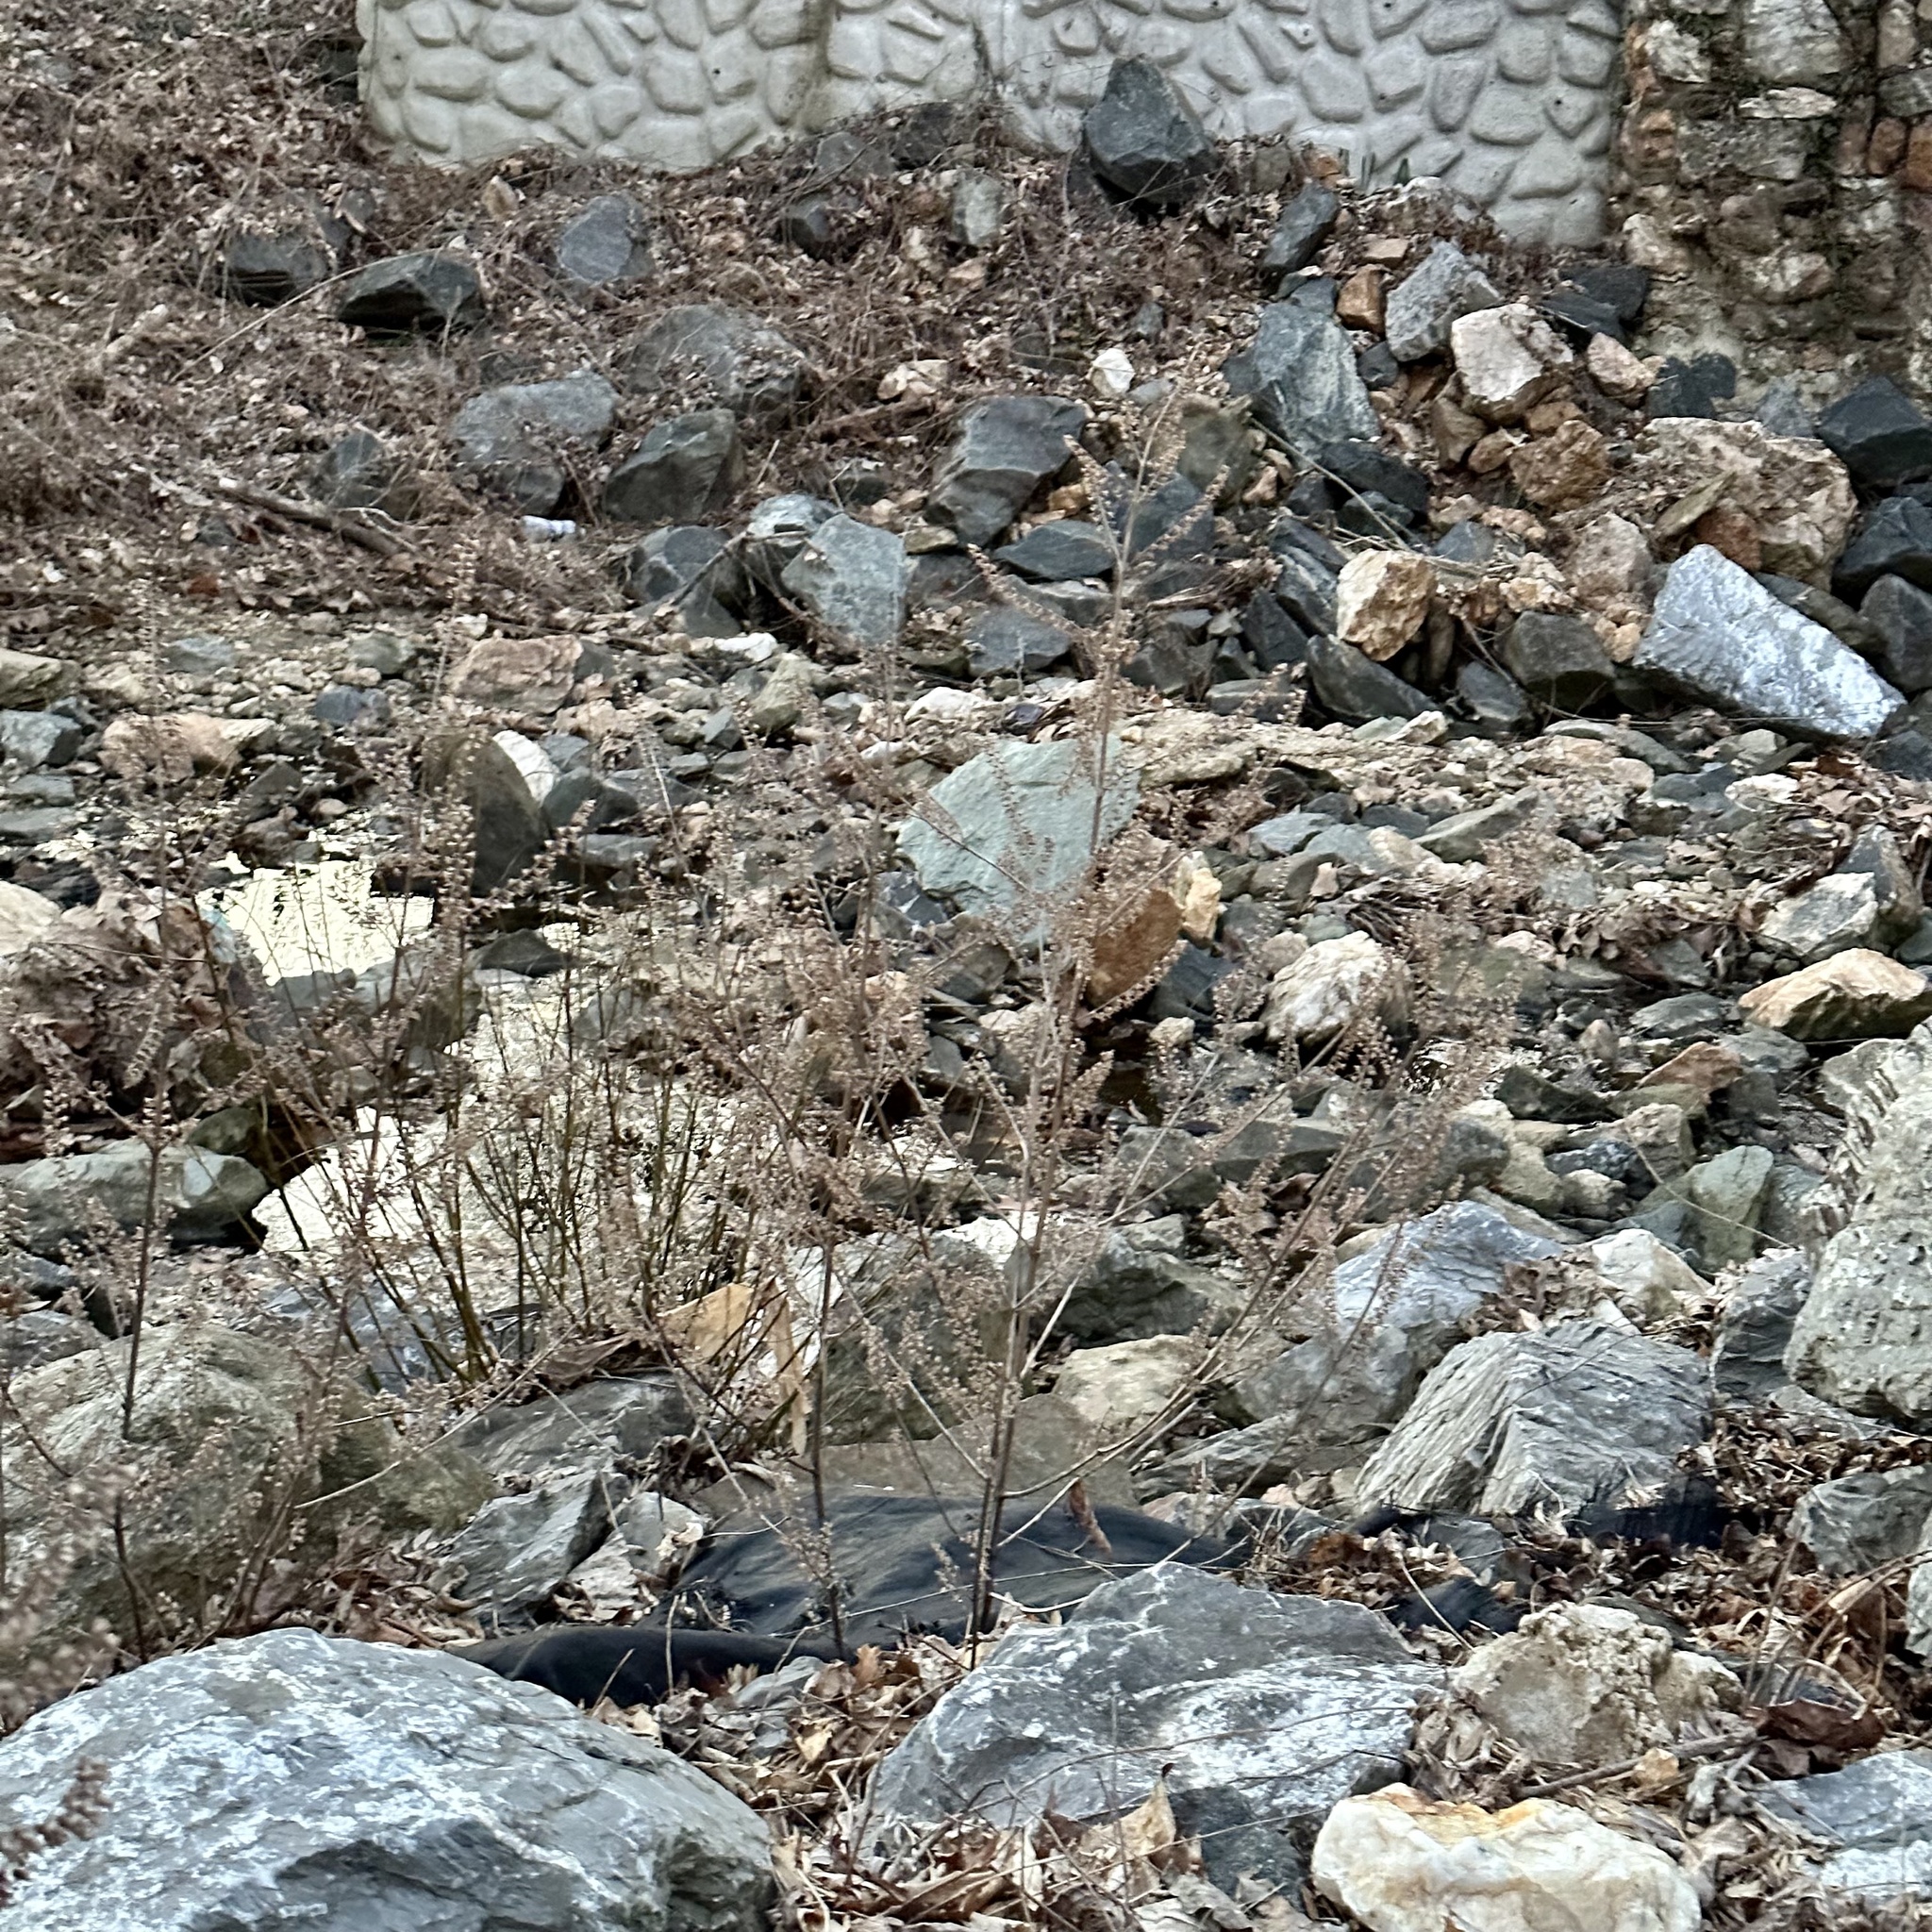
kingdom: Plantae
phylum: Tracheophyta
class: Magnoliopsida
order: Lamiales
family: Lamiaceae
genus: Perilla
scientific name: Perilla frutescens
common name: Perilla
